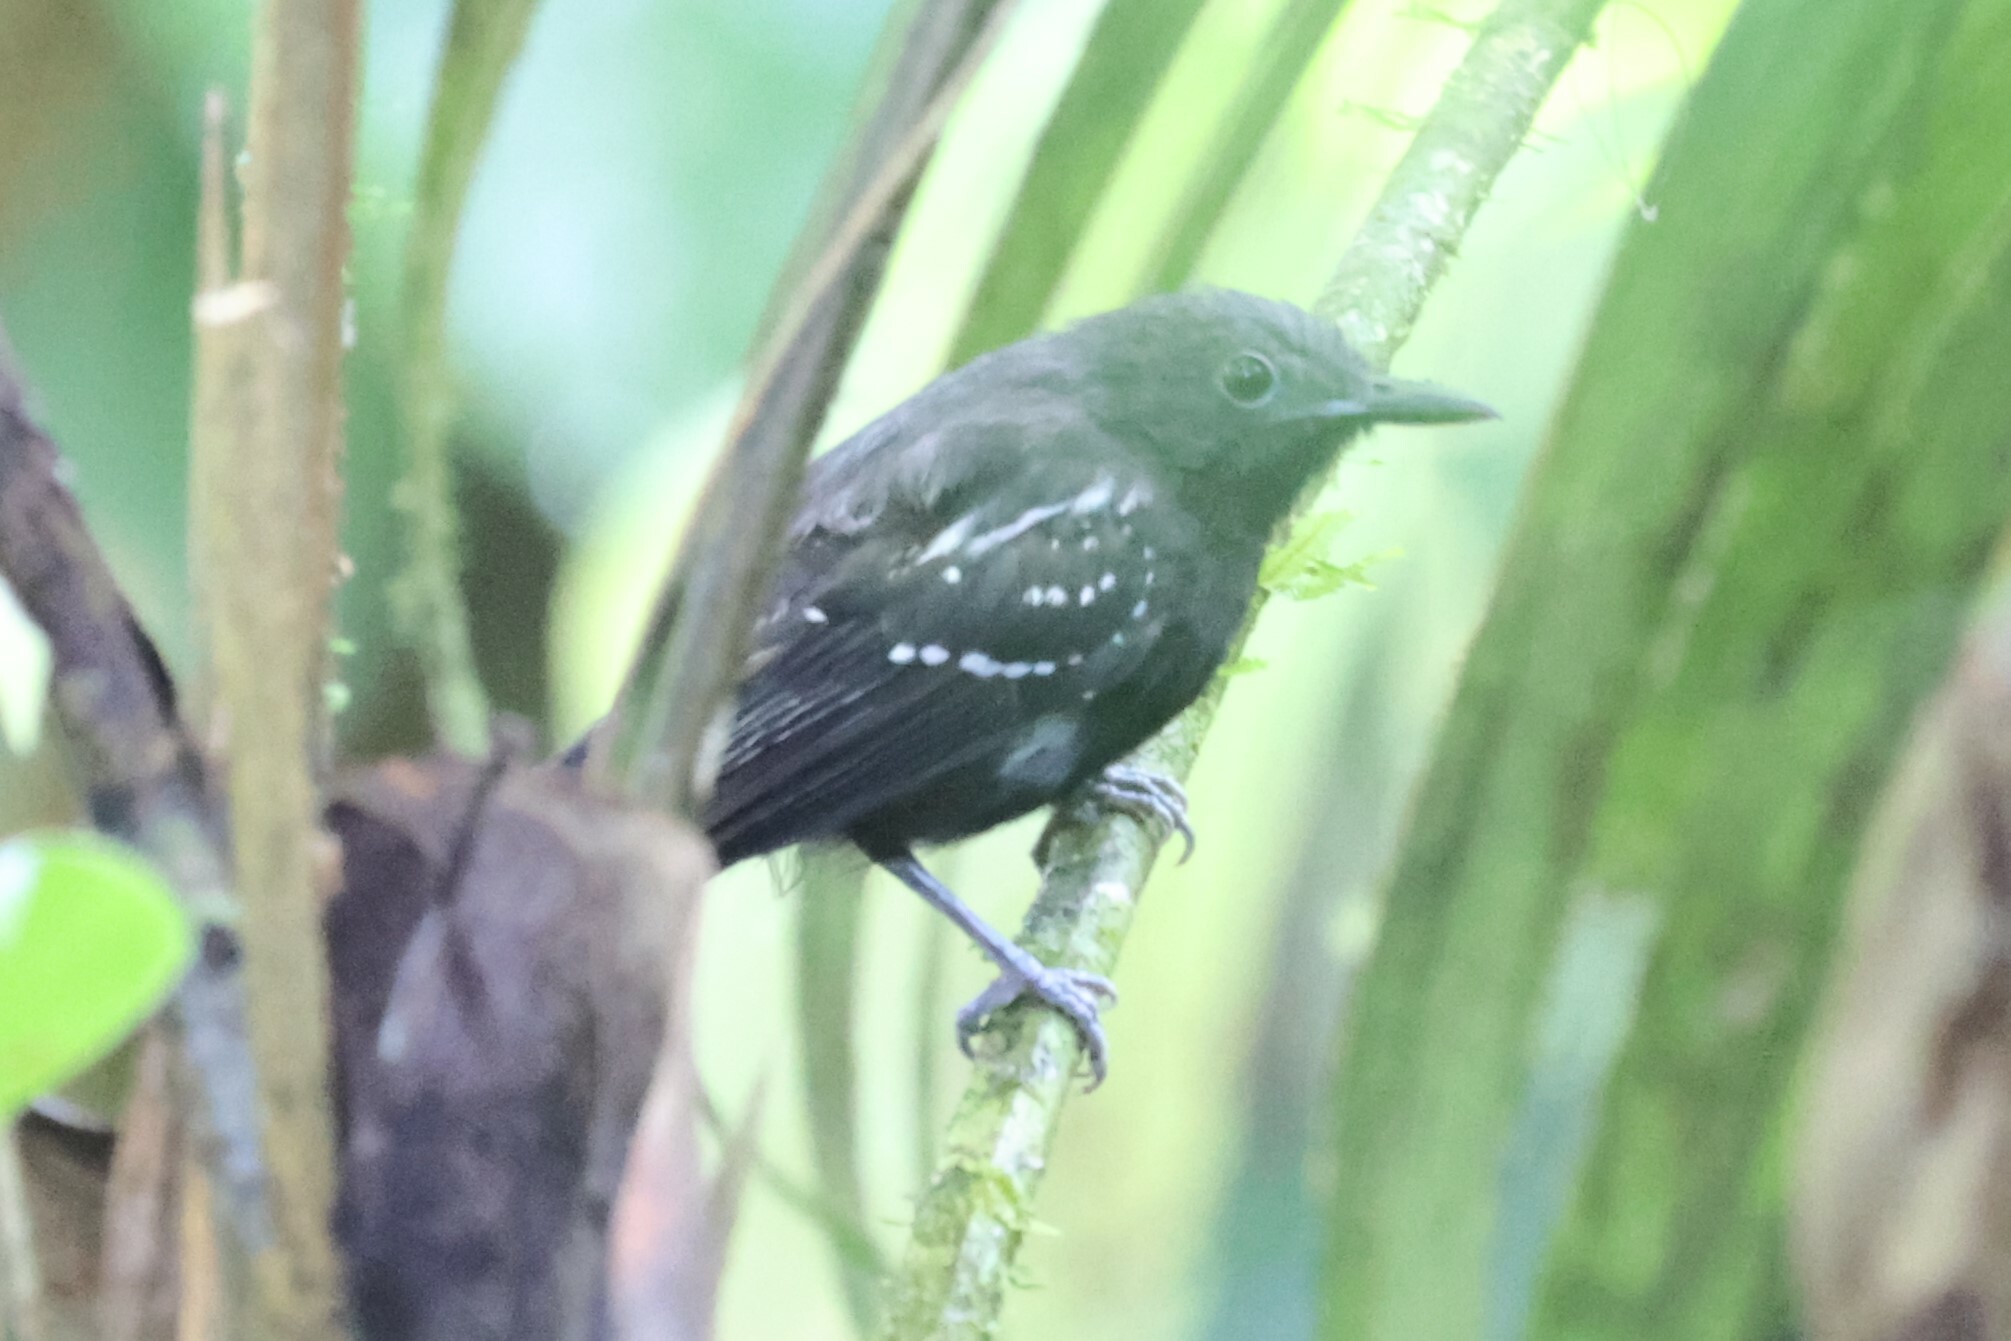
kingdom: Animalia
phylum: Chordata
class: Aves
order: Passeriformes
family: Thamnophilidae
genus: Myrmotherula
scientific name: Myrmotherula axillaris
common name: White-flanked antwren
